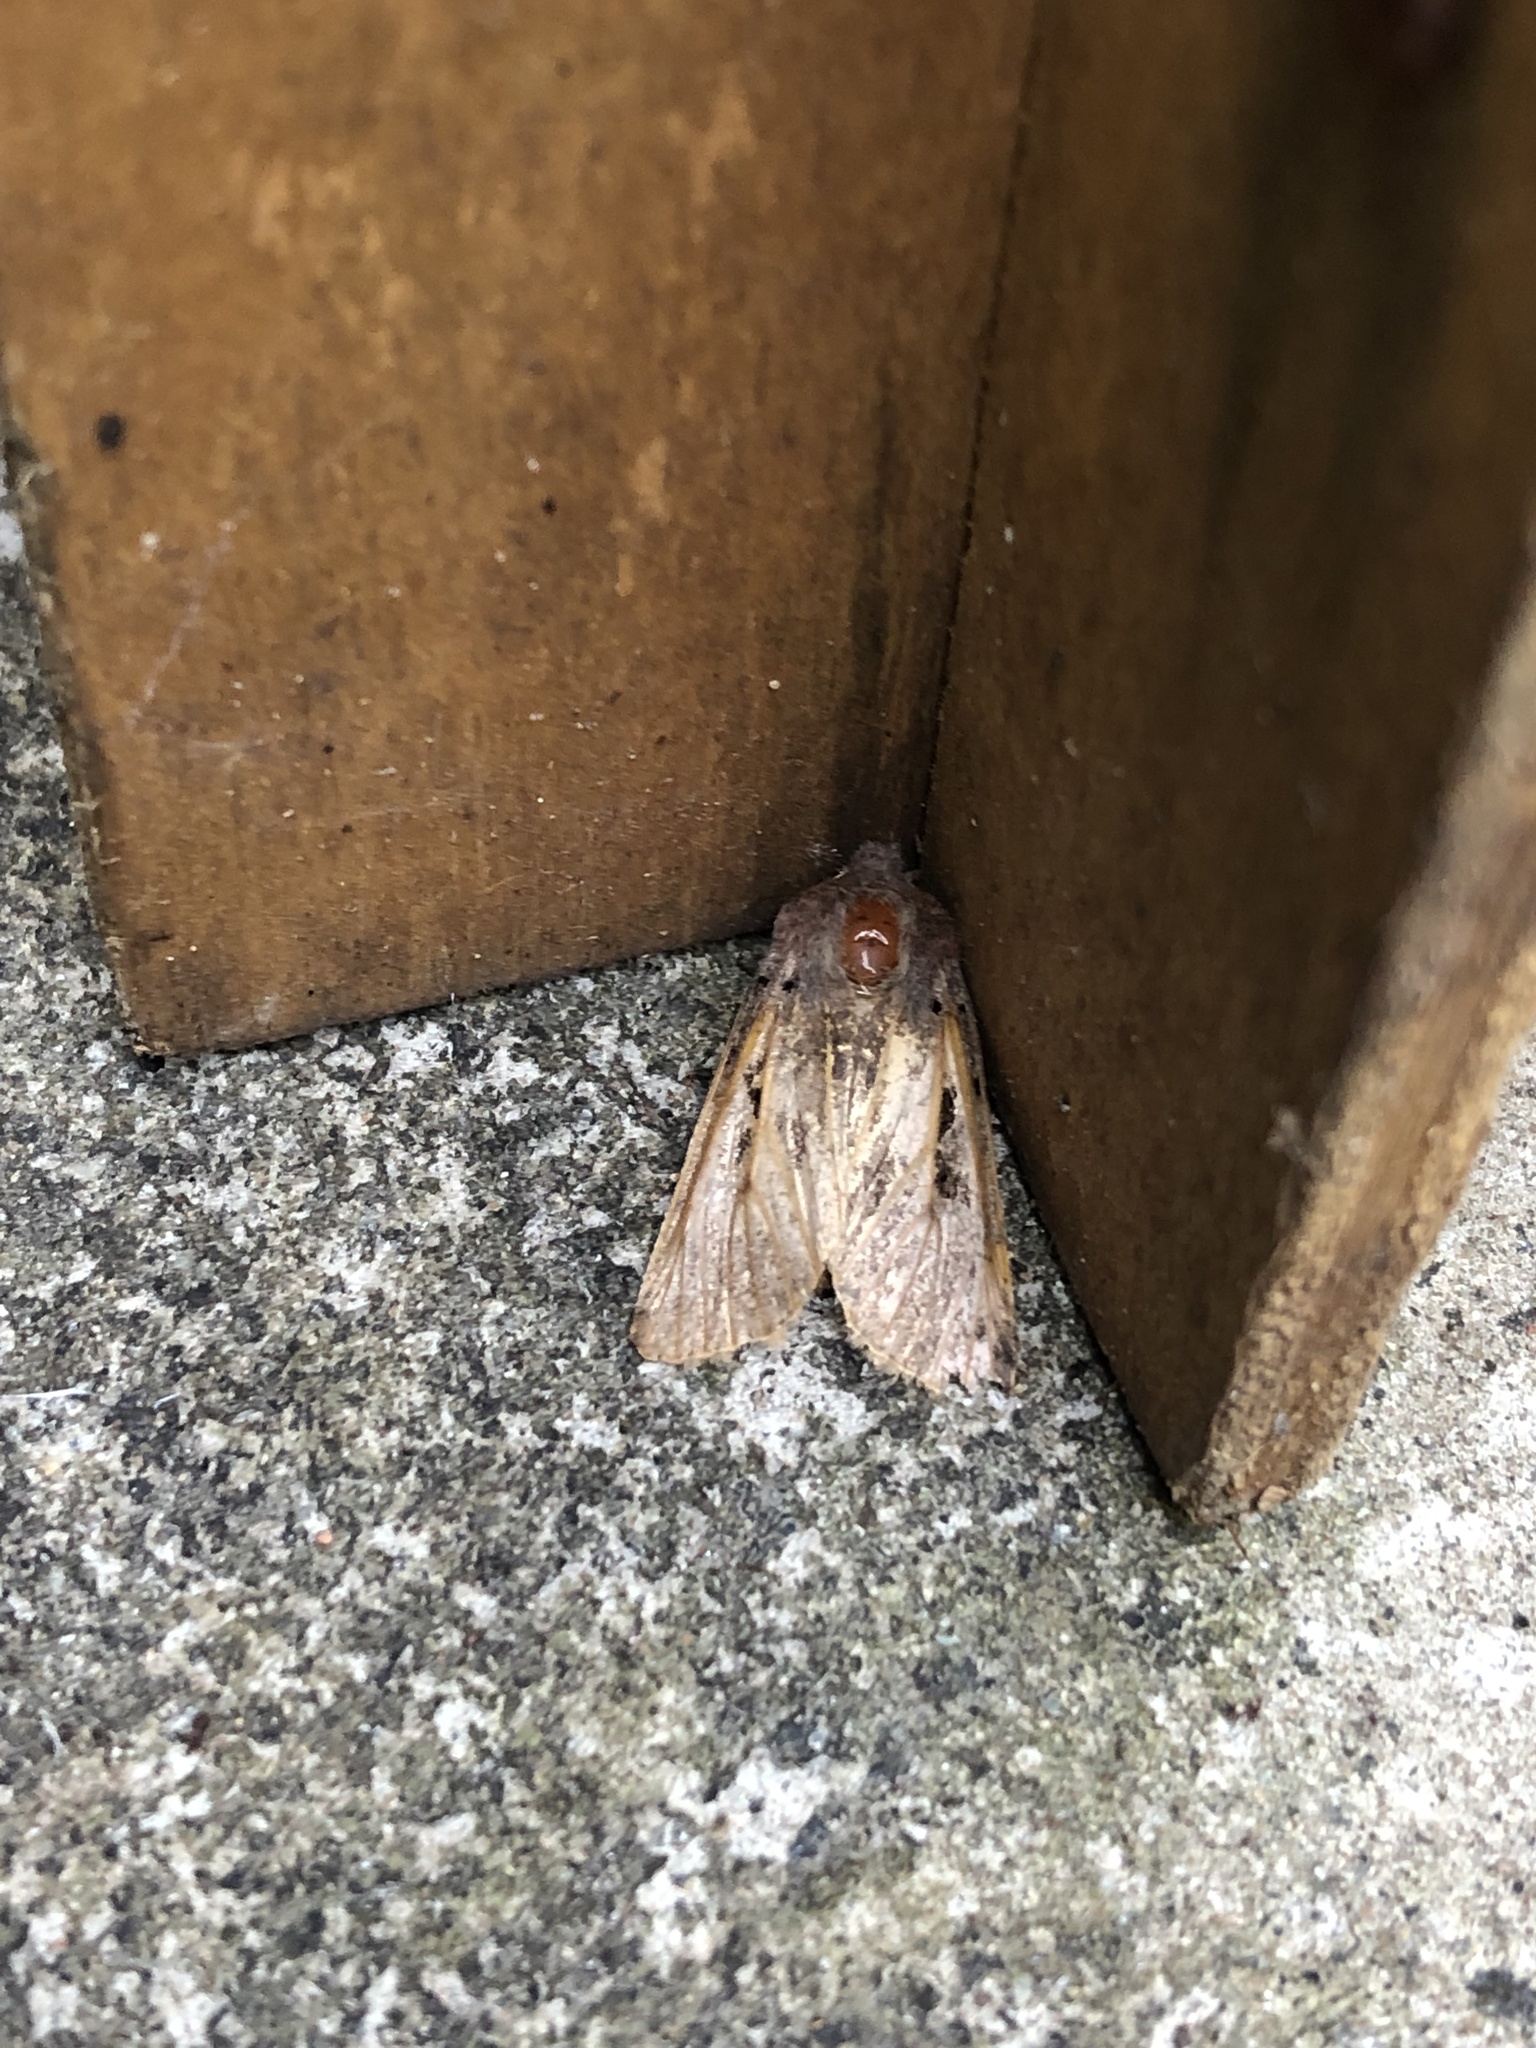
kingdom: Animalia
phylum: Arthropoda
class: Insecta
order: Lepidoptera
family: Noctuidae
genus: Orthosia
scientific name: Orthosia gothica
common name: Hebrew character
